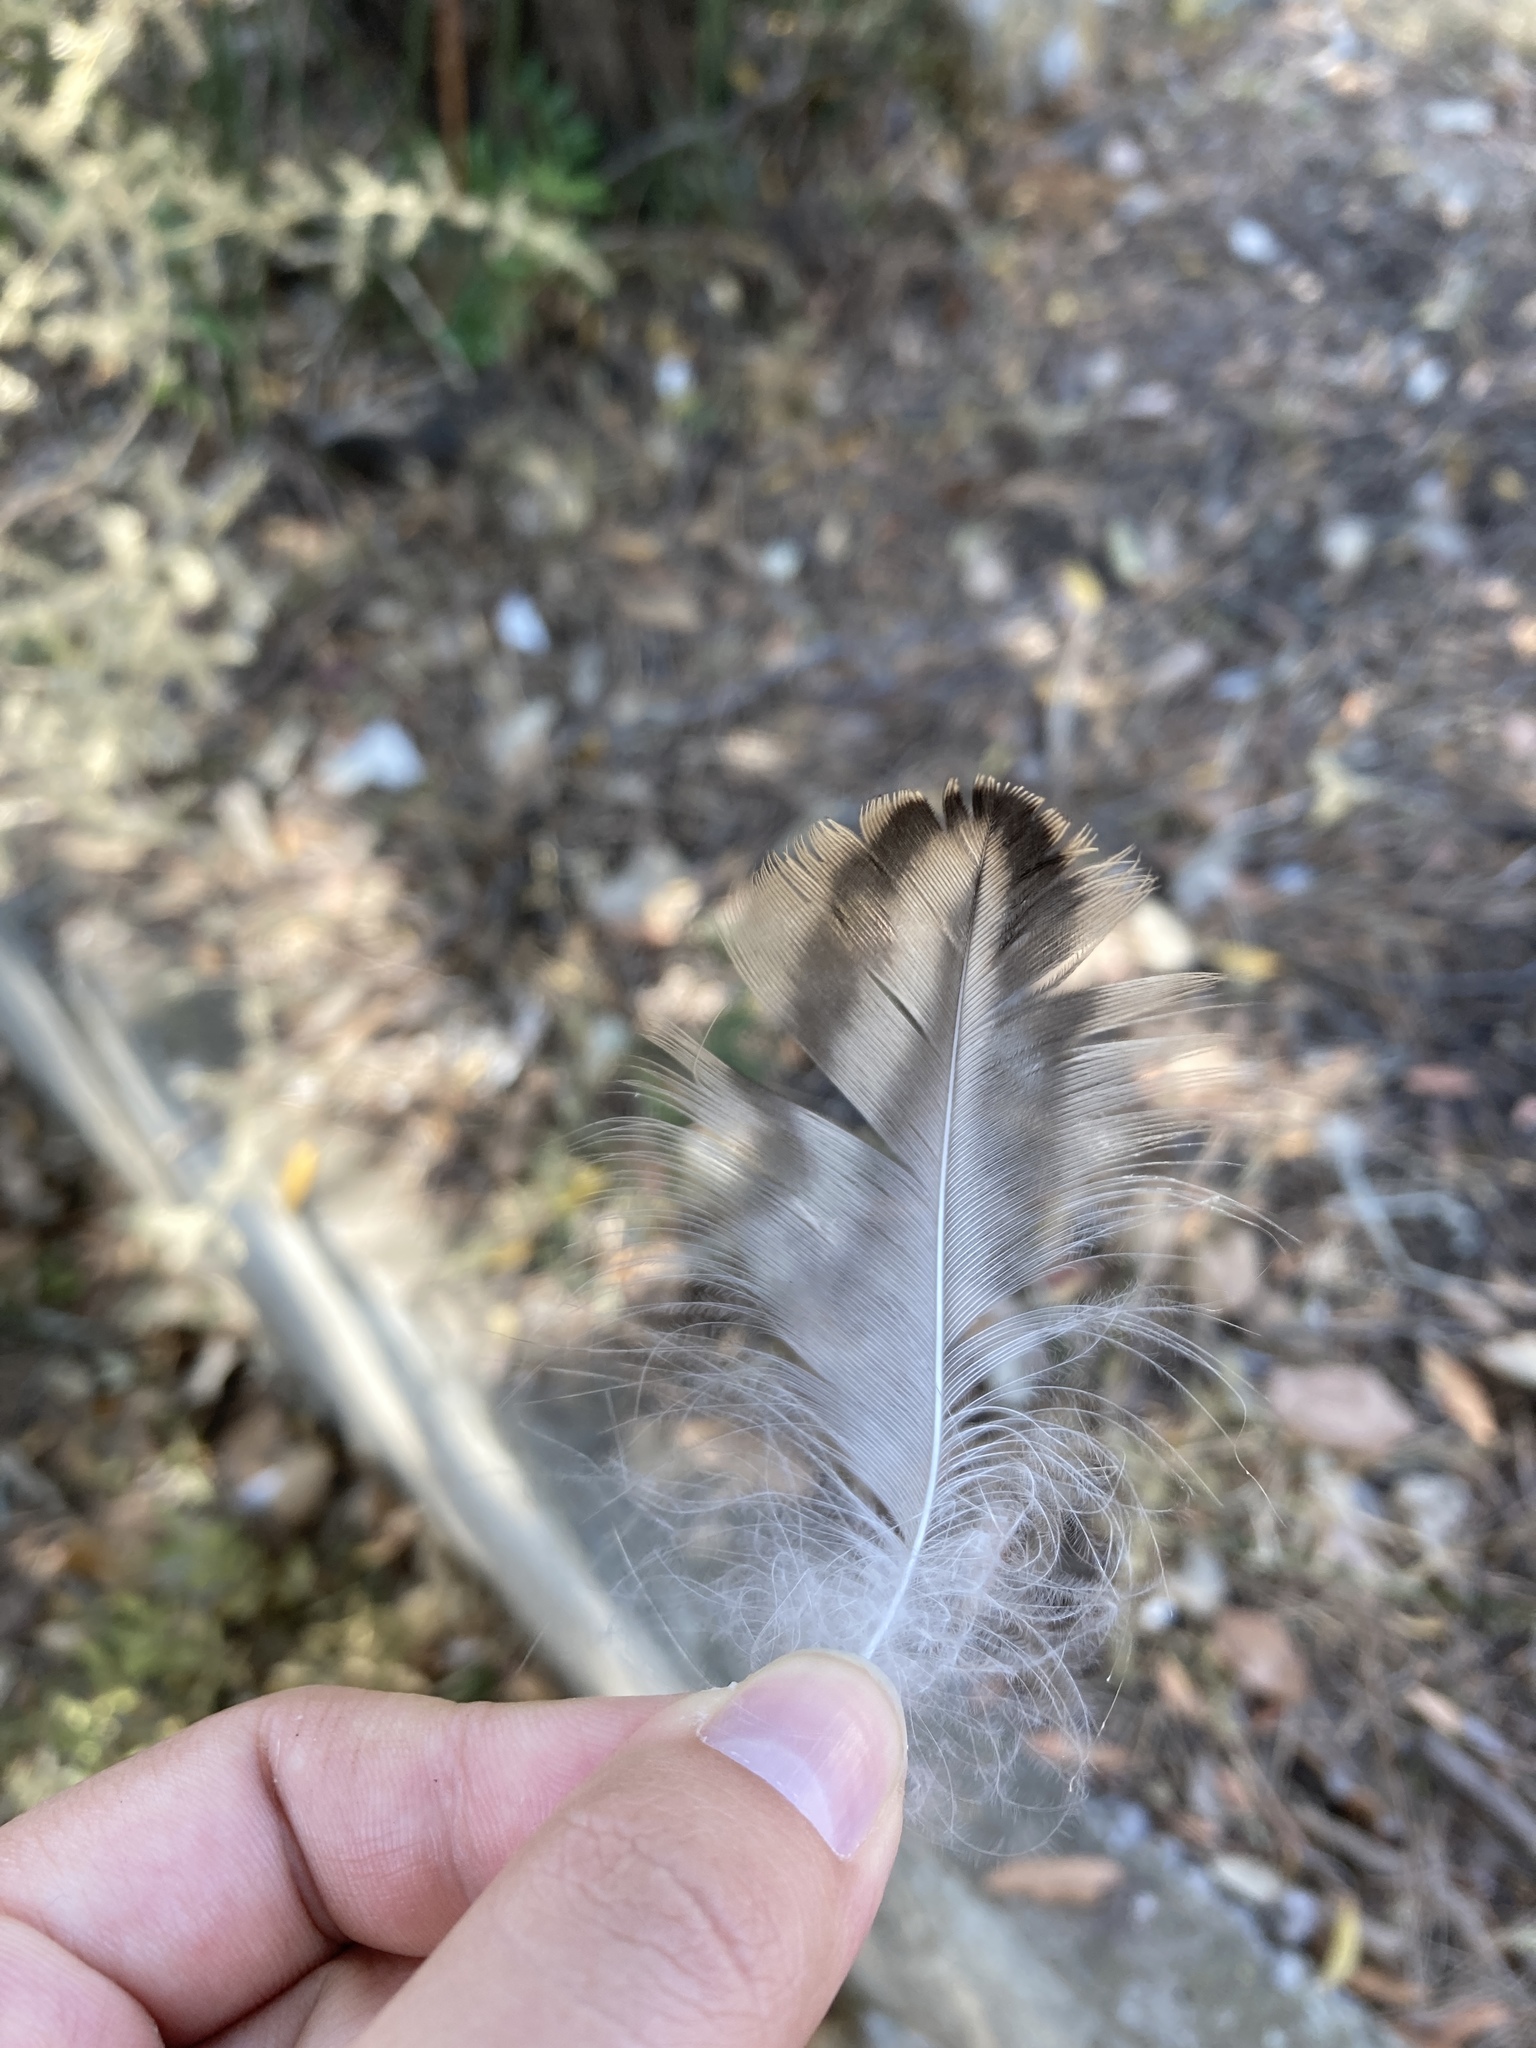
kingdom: Animalia
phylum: Chordata
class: Aves
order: Anseriformes
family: Anatidae
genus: Anas
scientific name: Anas platyrhynchos
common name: Mallard
